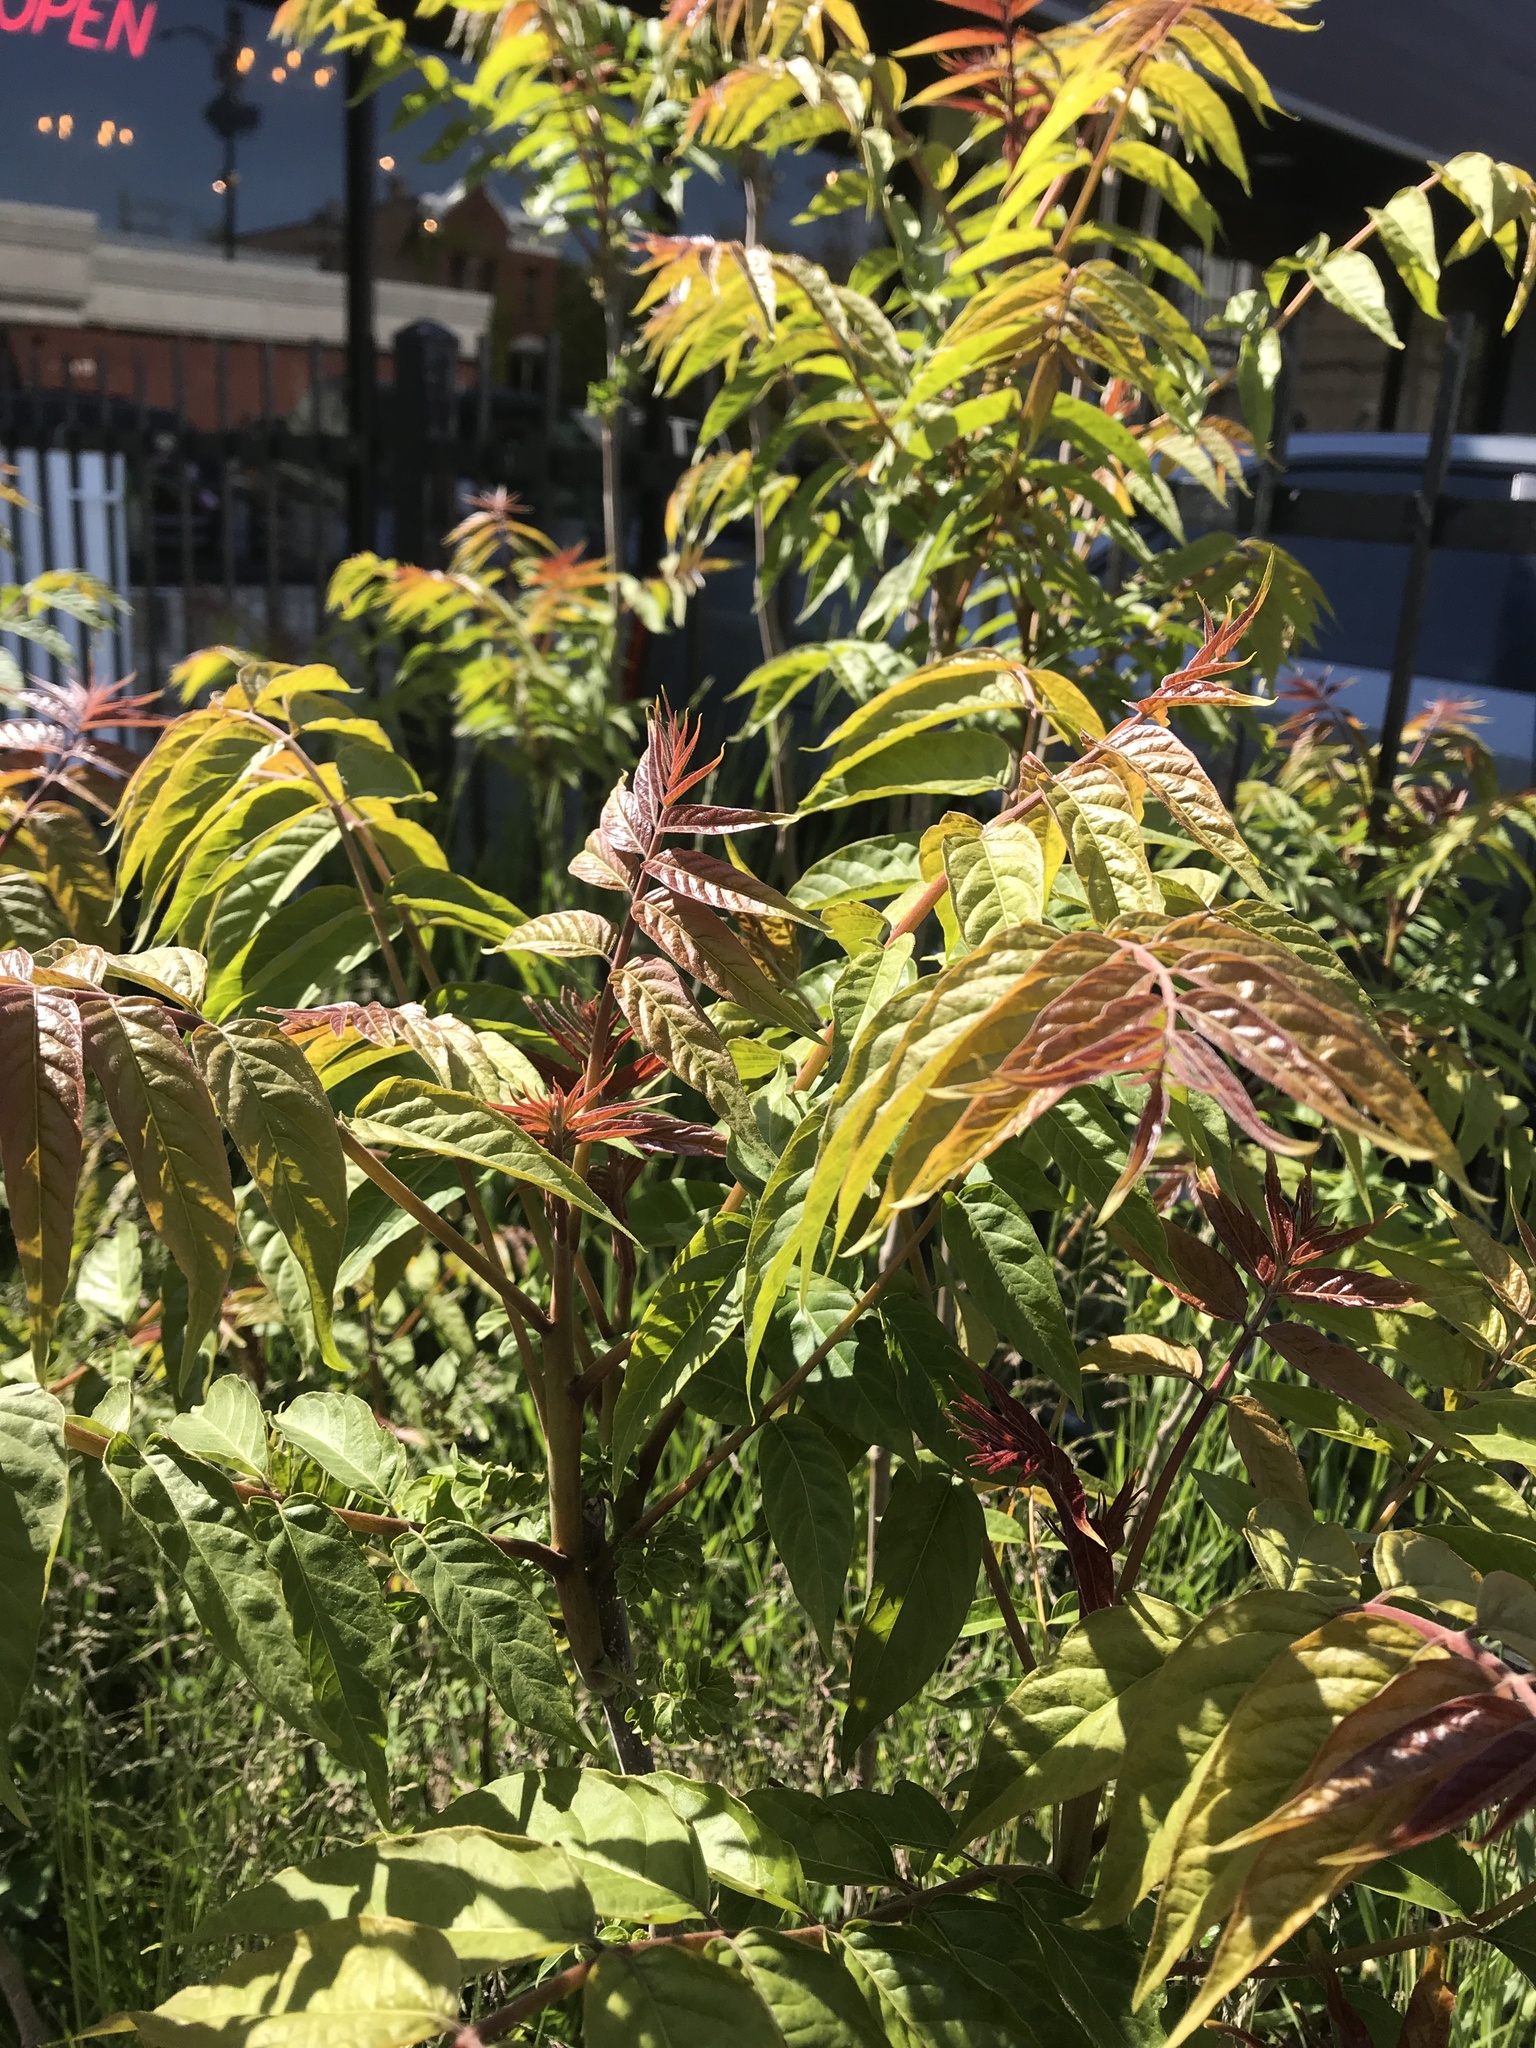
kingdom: Plantae
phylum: Tracheophyta
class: Magnoliopsida
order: Sapindales
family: Simaroubaceae
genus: Ailanthus
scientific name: Ailanthus altissima
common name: Tree-of-heaven
